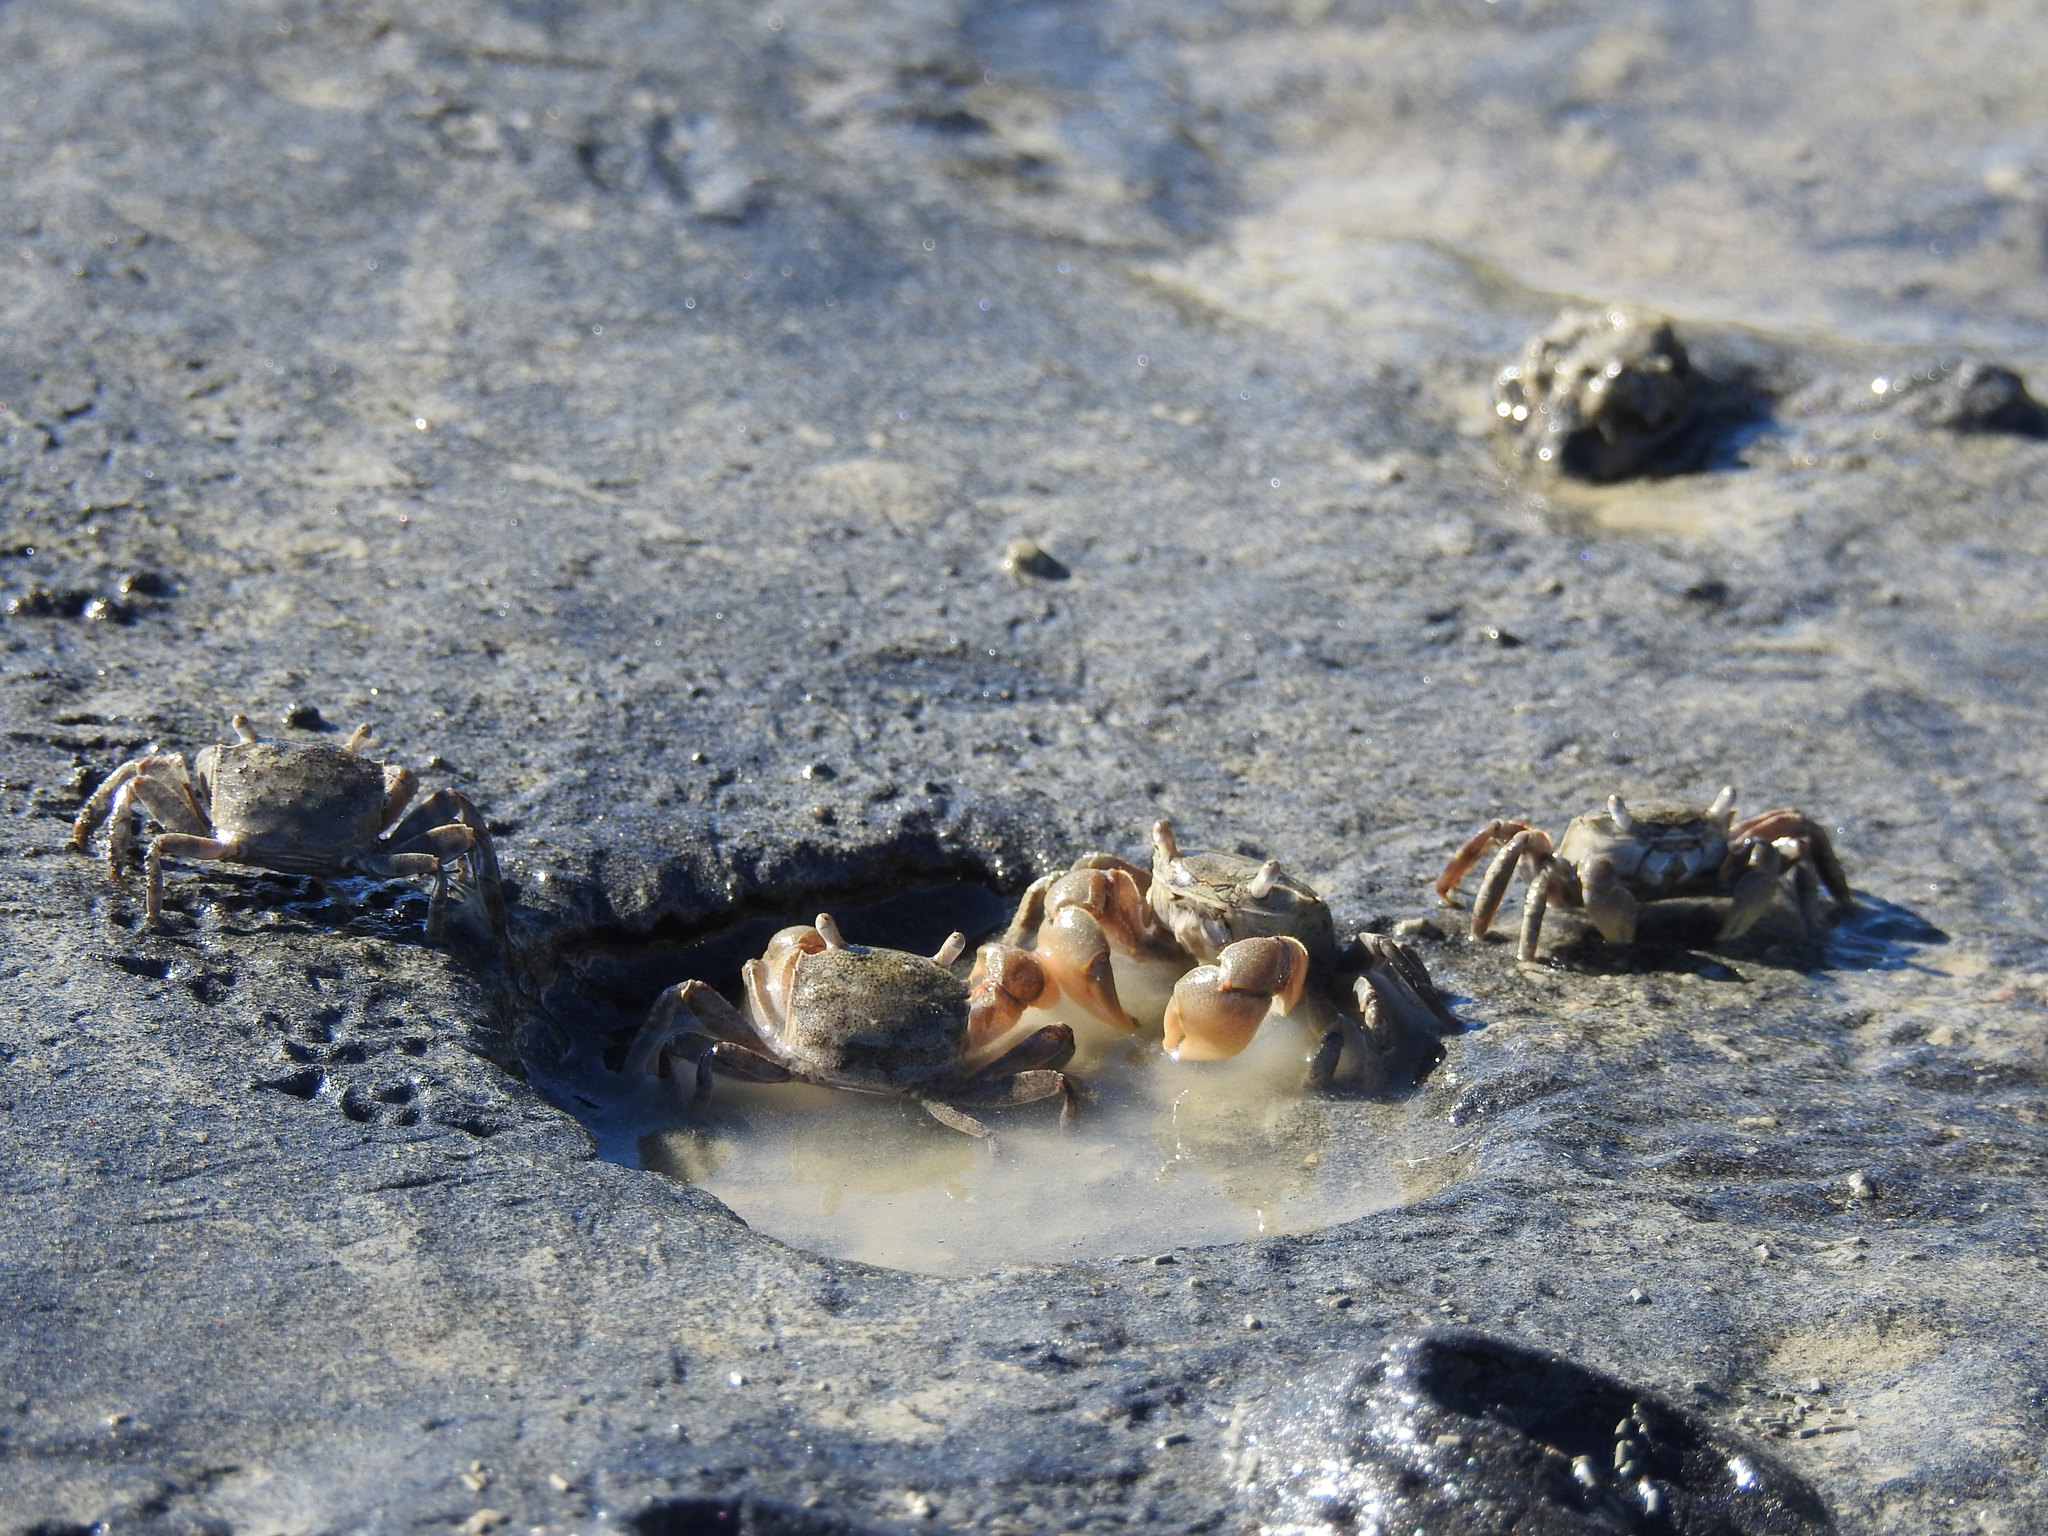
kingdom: Animalia
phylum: Arthropoda
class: Malacostraca
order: Decapoda
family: Varunidae
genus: Austrohelice
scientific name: Austrohelice crassa
